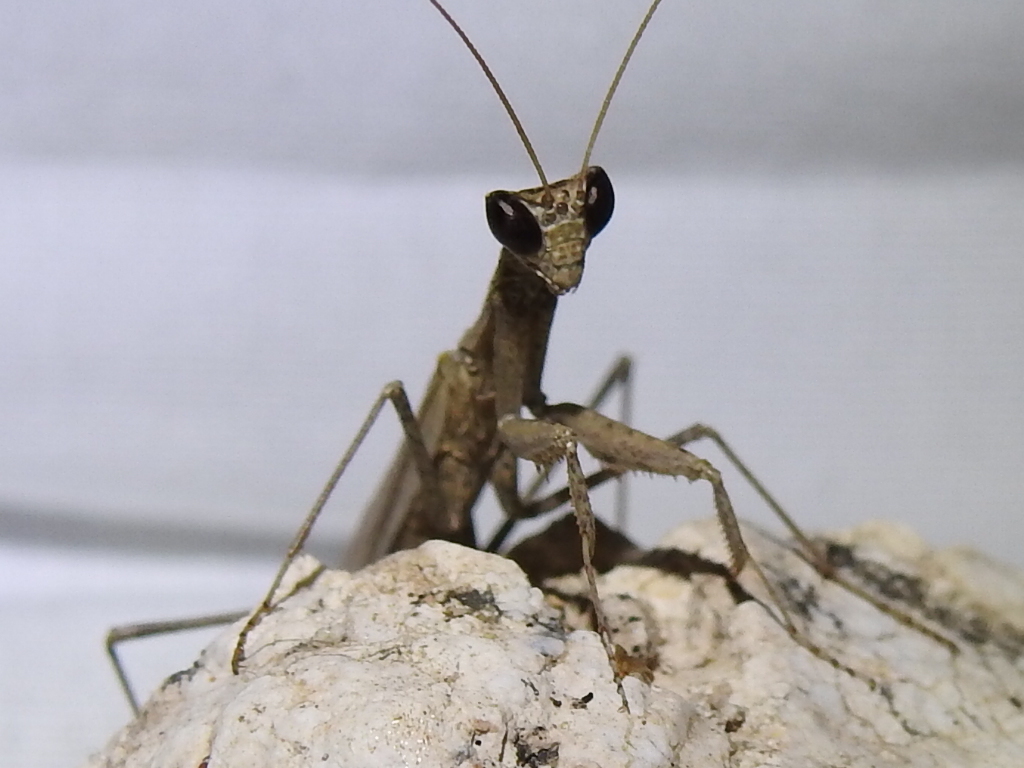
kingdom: Animalia
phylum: Arthropoda
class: Insecta
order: Mantodea
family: Amelidae
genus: Litaneutria
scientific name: Litaneutria minor
